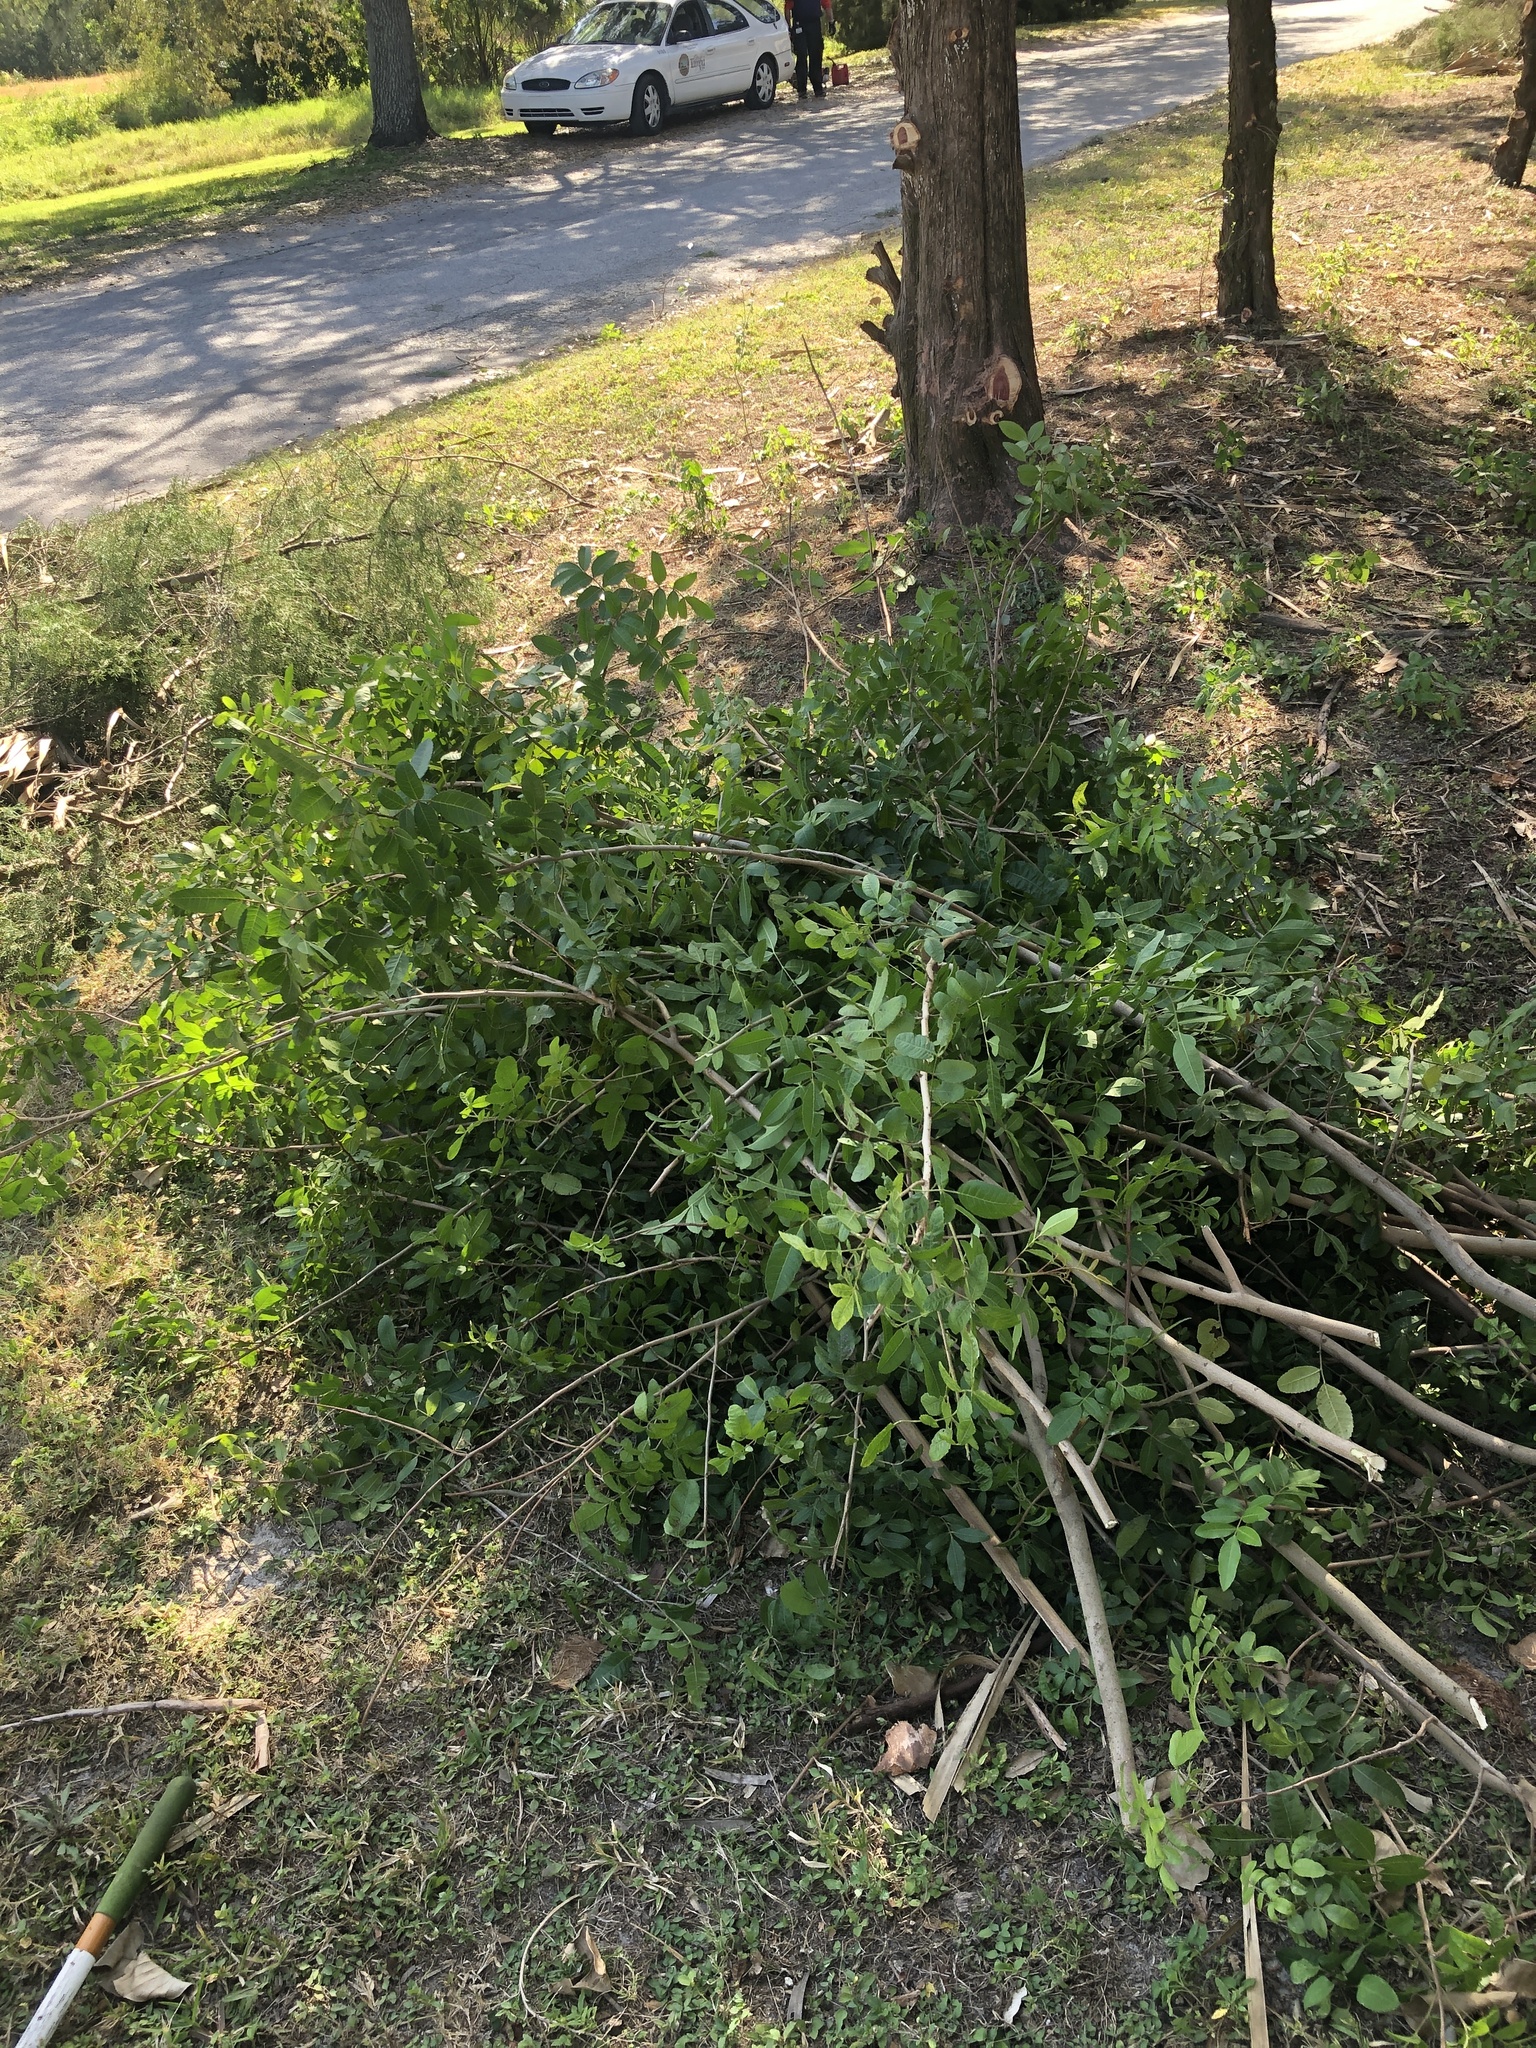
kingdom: Plantae
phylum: Tracheophyta
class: Magnoliopsida
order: Sapindales
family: Anacardiaceae
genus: Schinus
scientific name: Schinus terebinthifolia
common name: Brazilian peppertree
